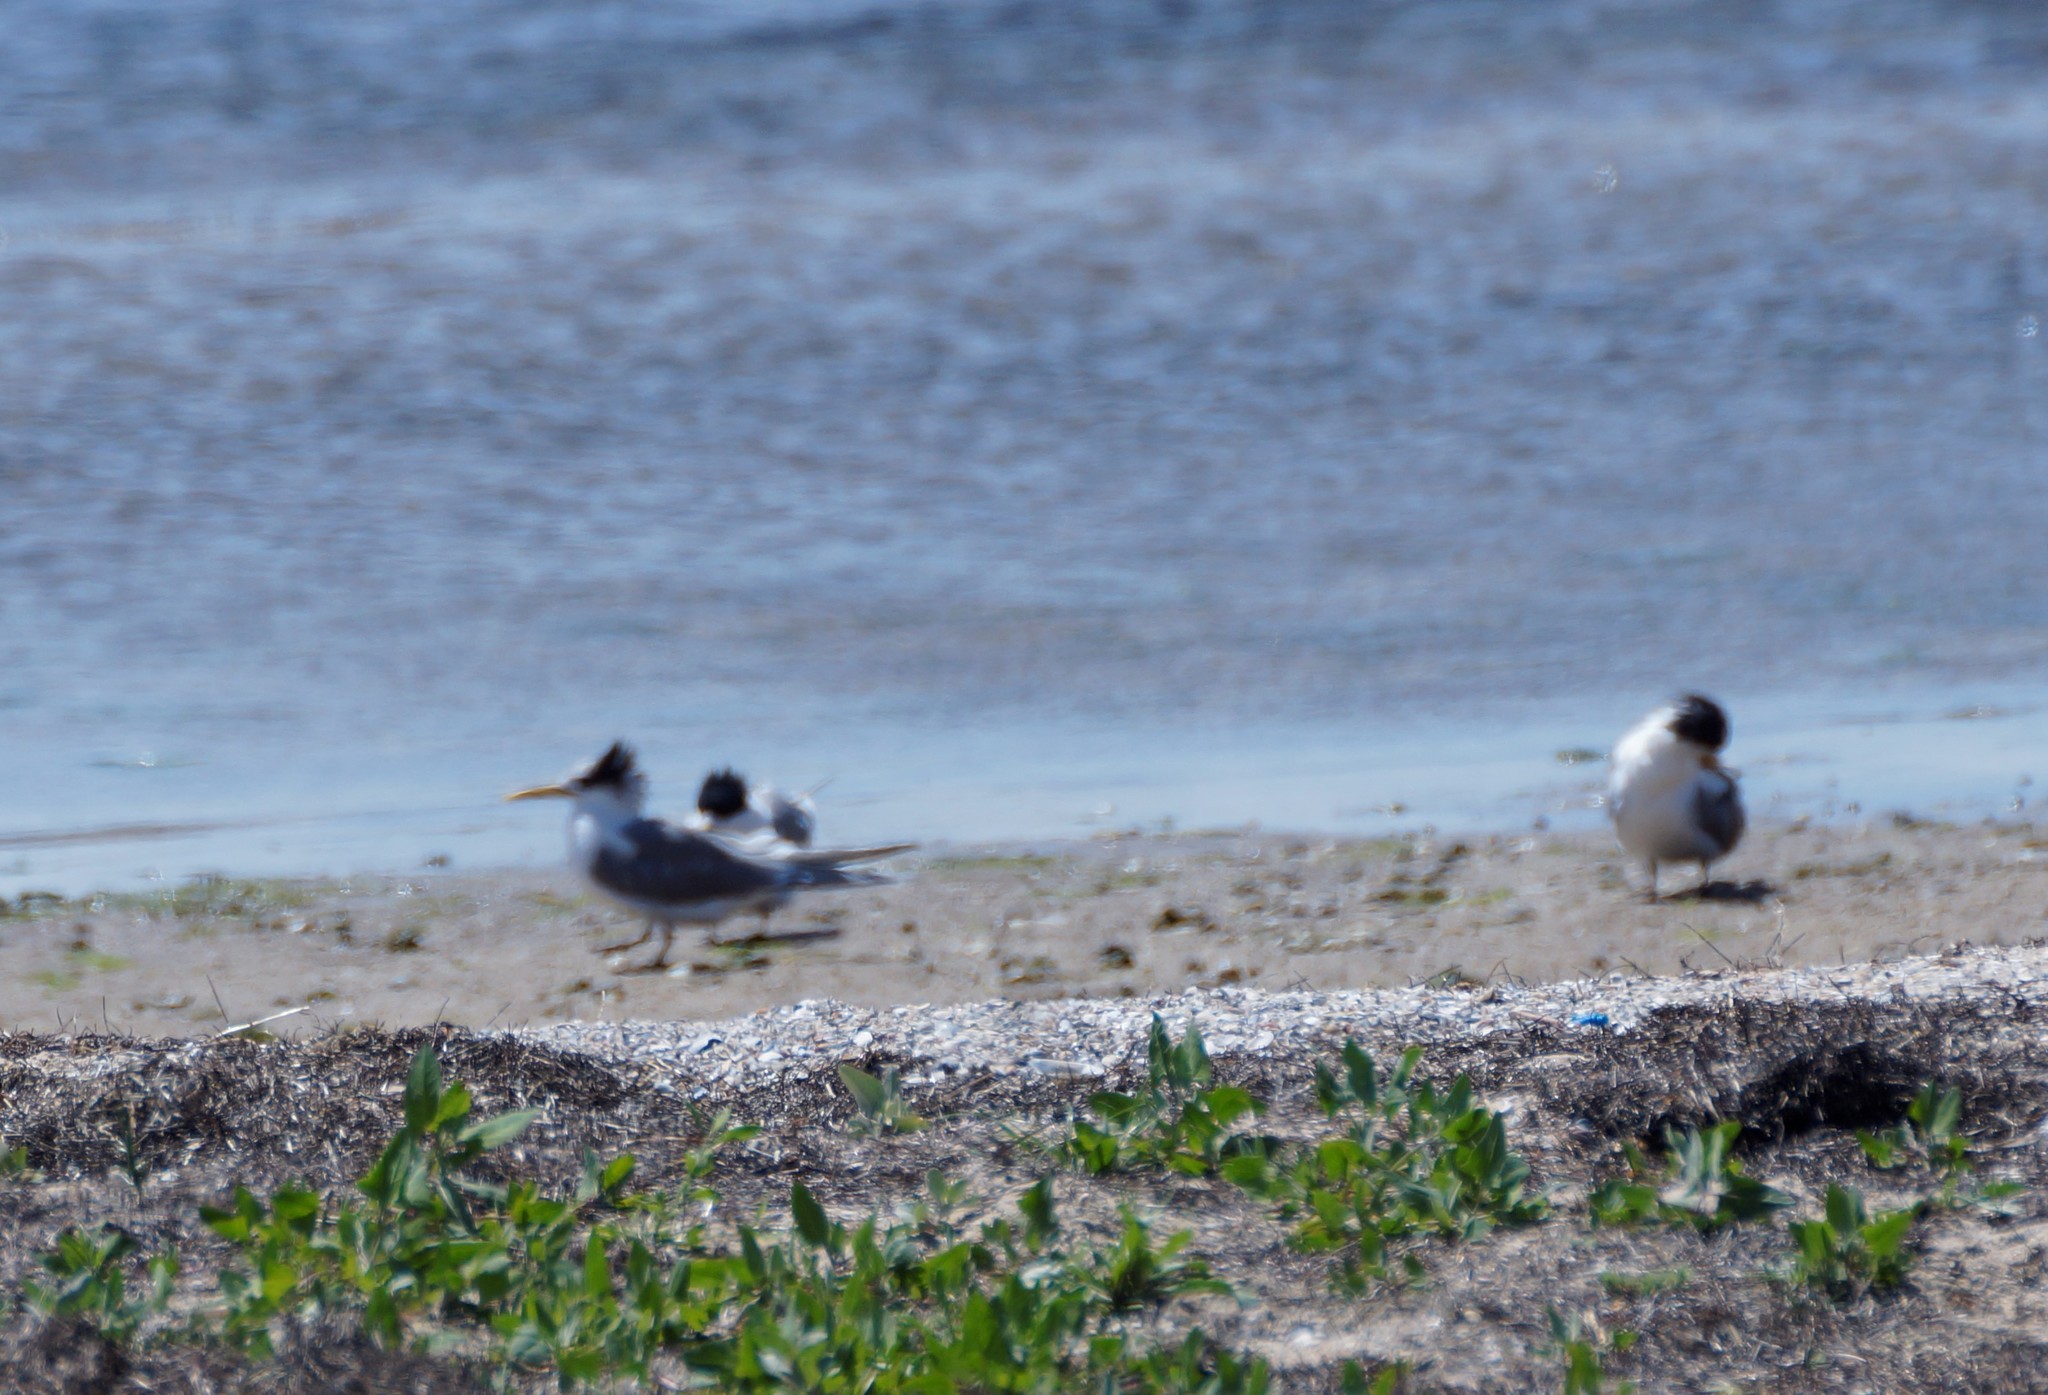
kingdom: Animalia
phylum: Chordata
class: Aves
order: Charadriiformes
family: Laridae
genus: Thalasseus
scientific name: Thalasseus bergii
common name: Greater crested tern
